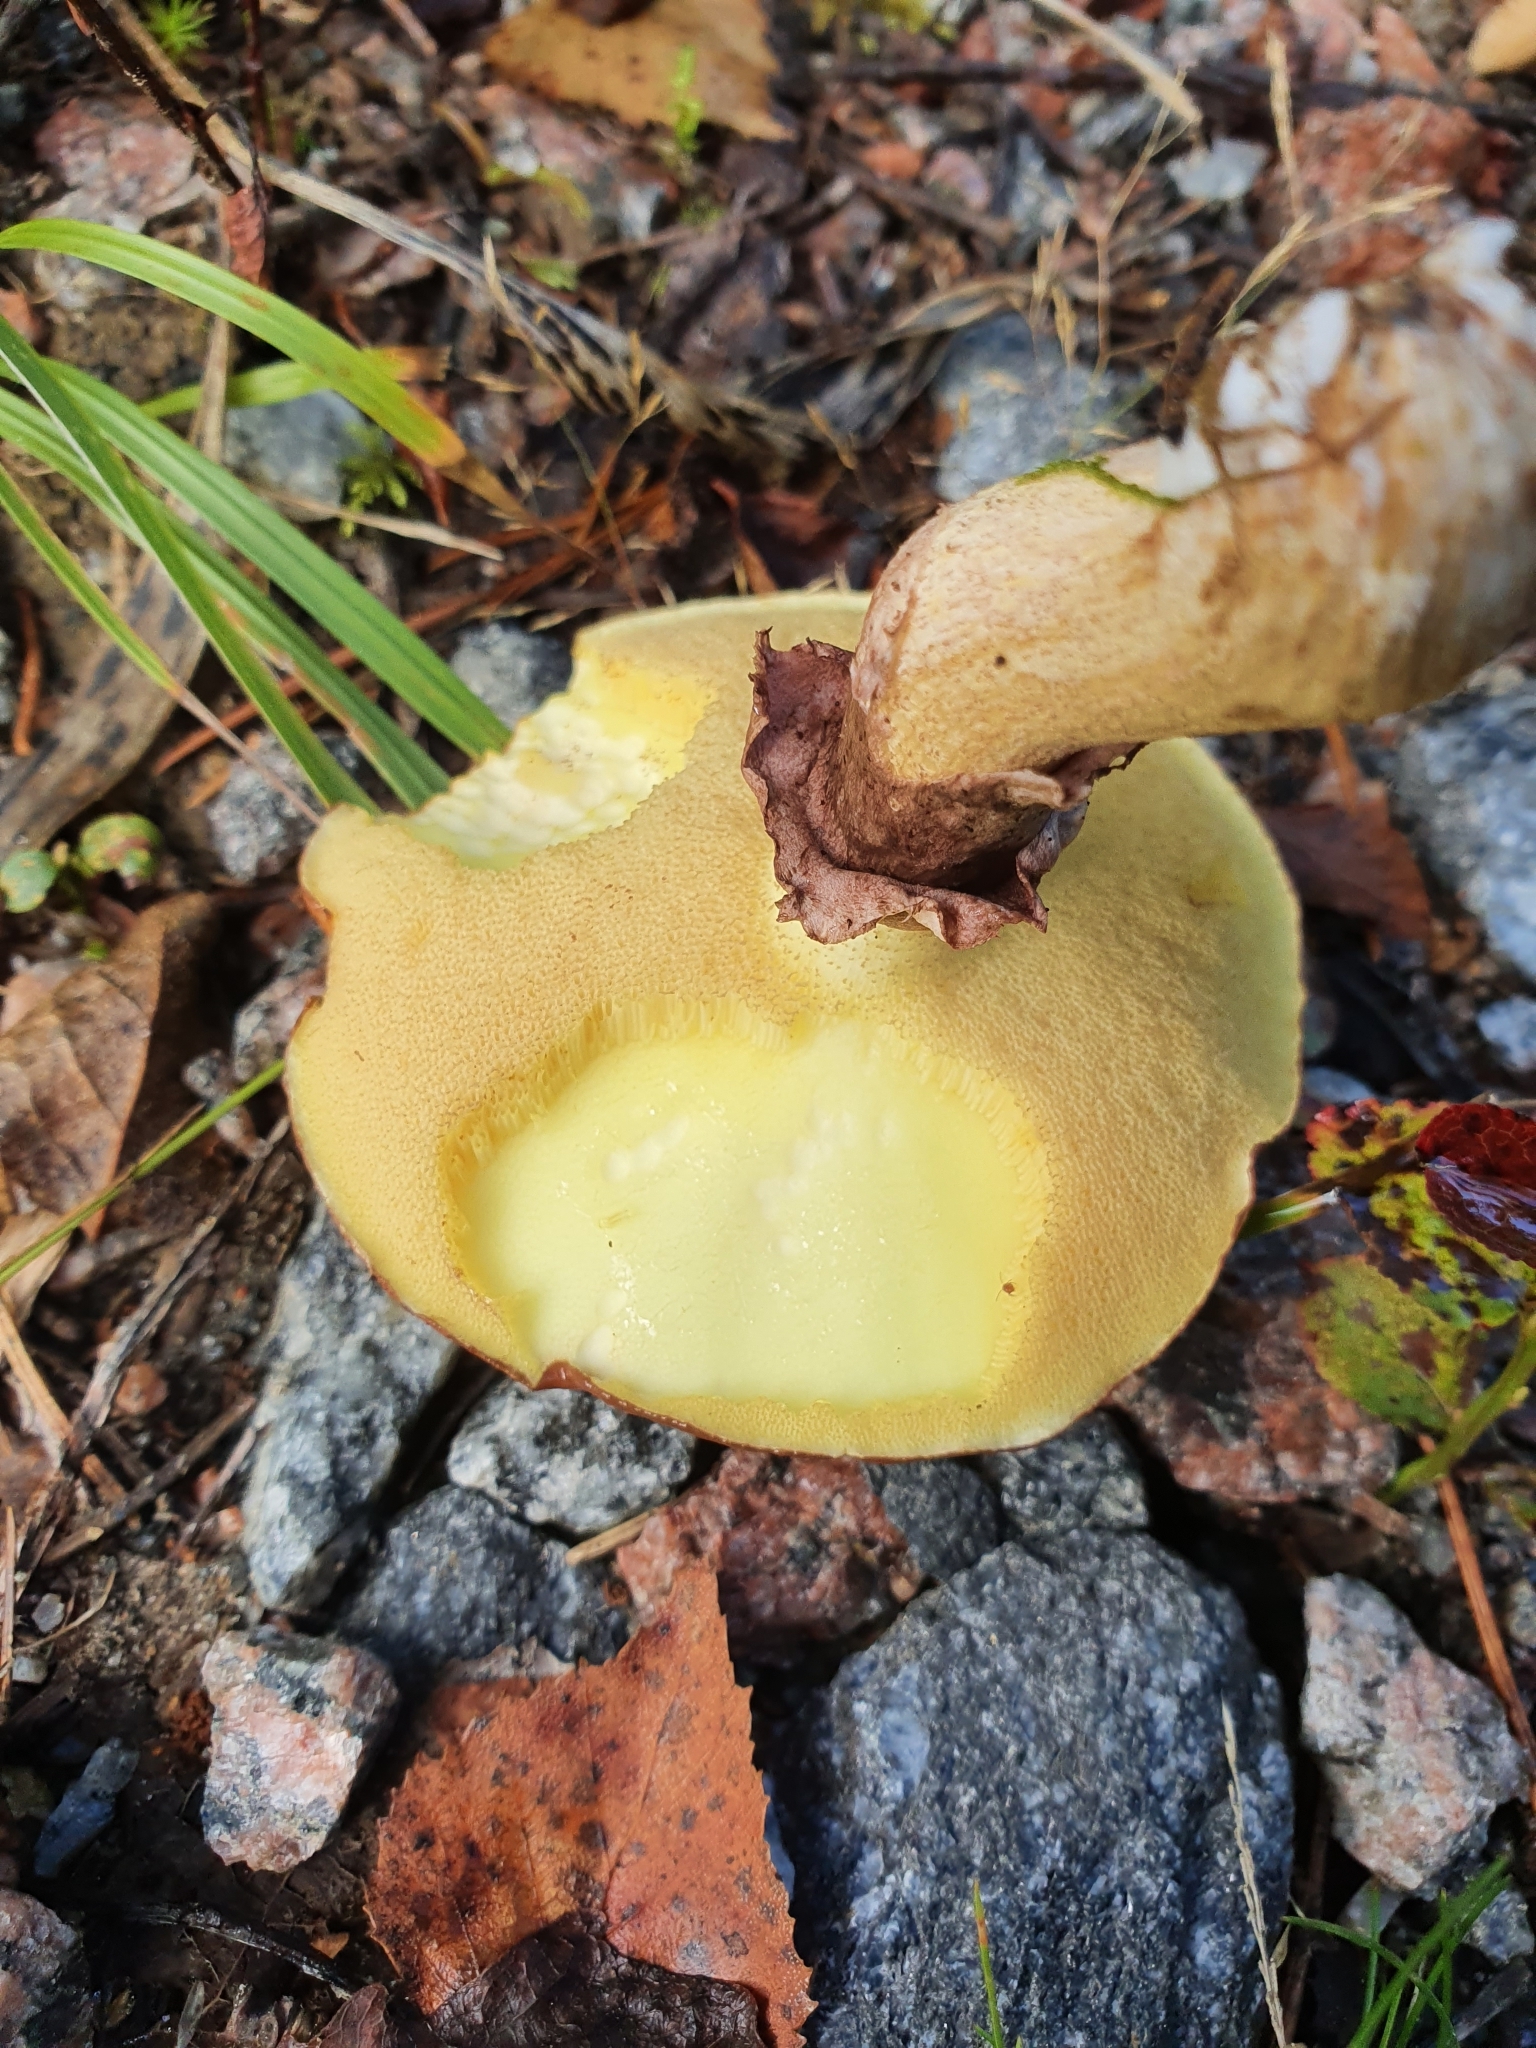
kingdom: Fungi
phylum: Basidiomycota
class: Agaricomycetes
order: Boletales
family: Suillaceae
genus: Suillus
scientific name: Suillus luteus
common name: Slippery jack
